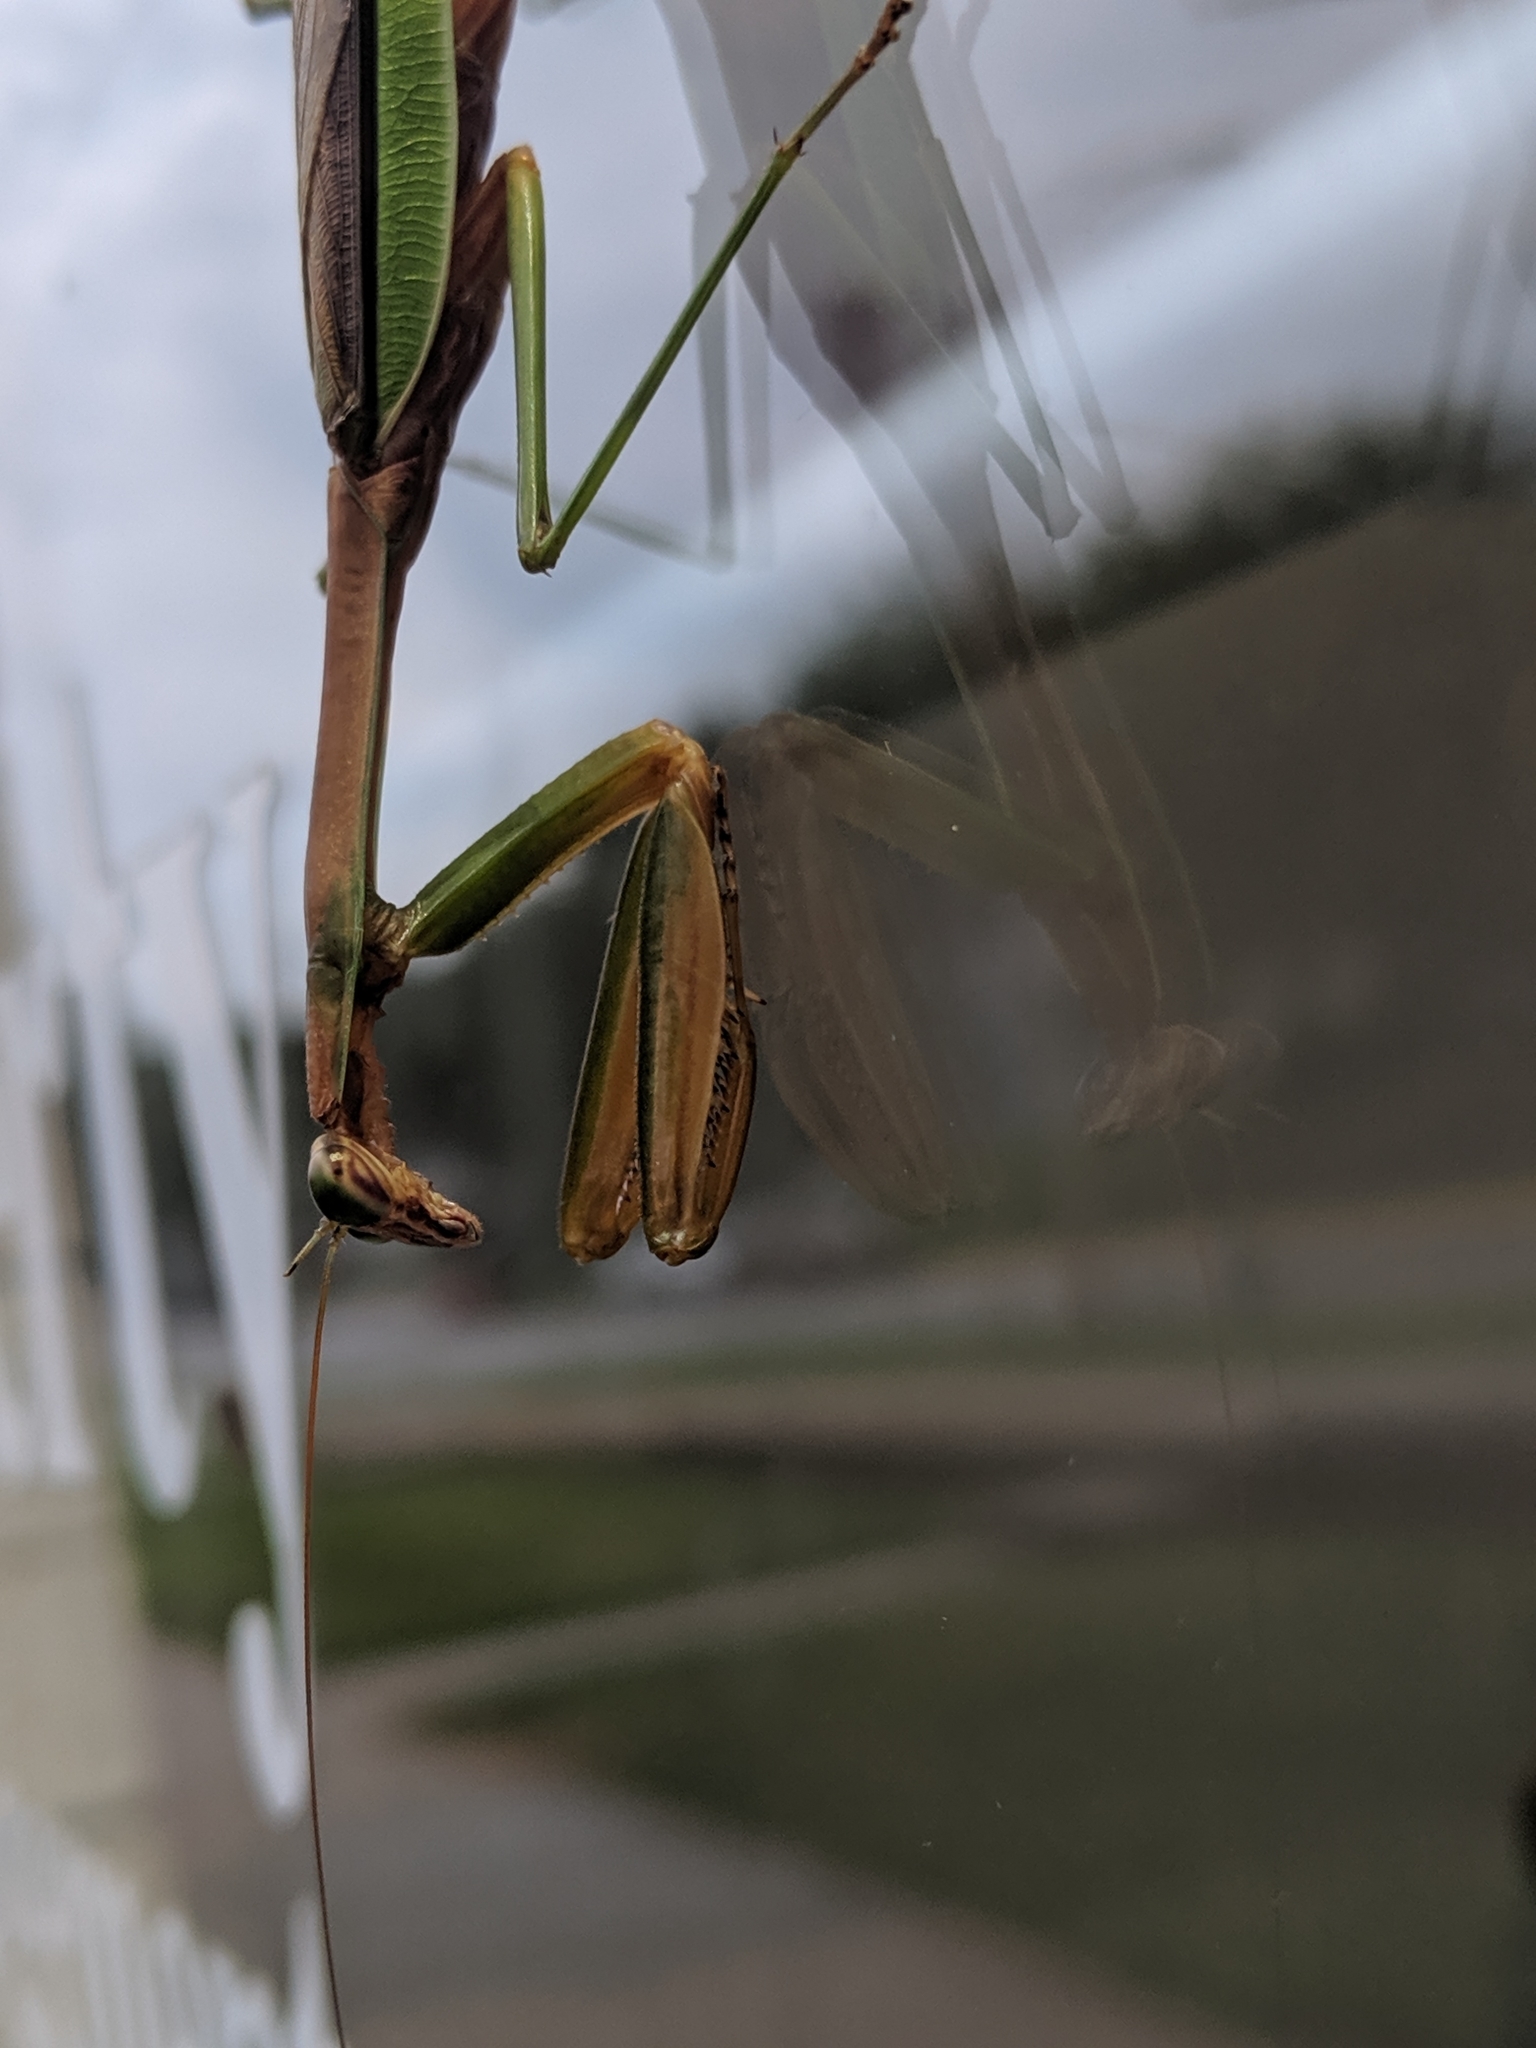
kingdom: Animalia
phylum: Arthropoda
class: Insecta
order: Mantodea
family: Mantidae
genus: Tenodera
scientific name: Tenodera sinensis
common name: Chinese mantis
